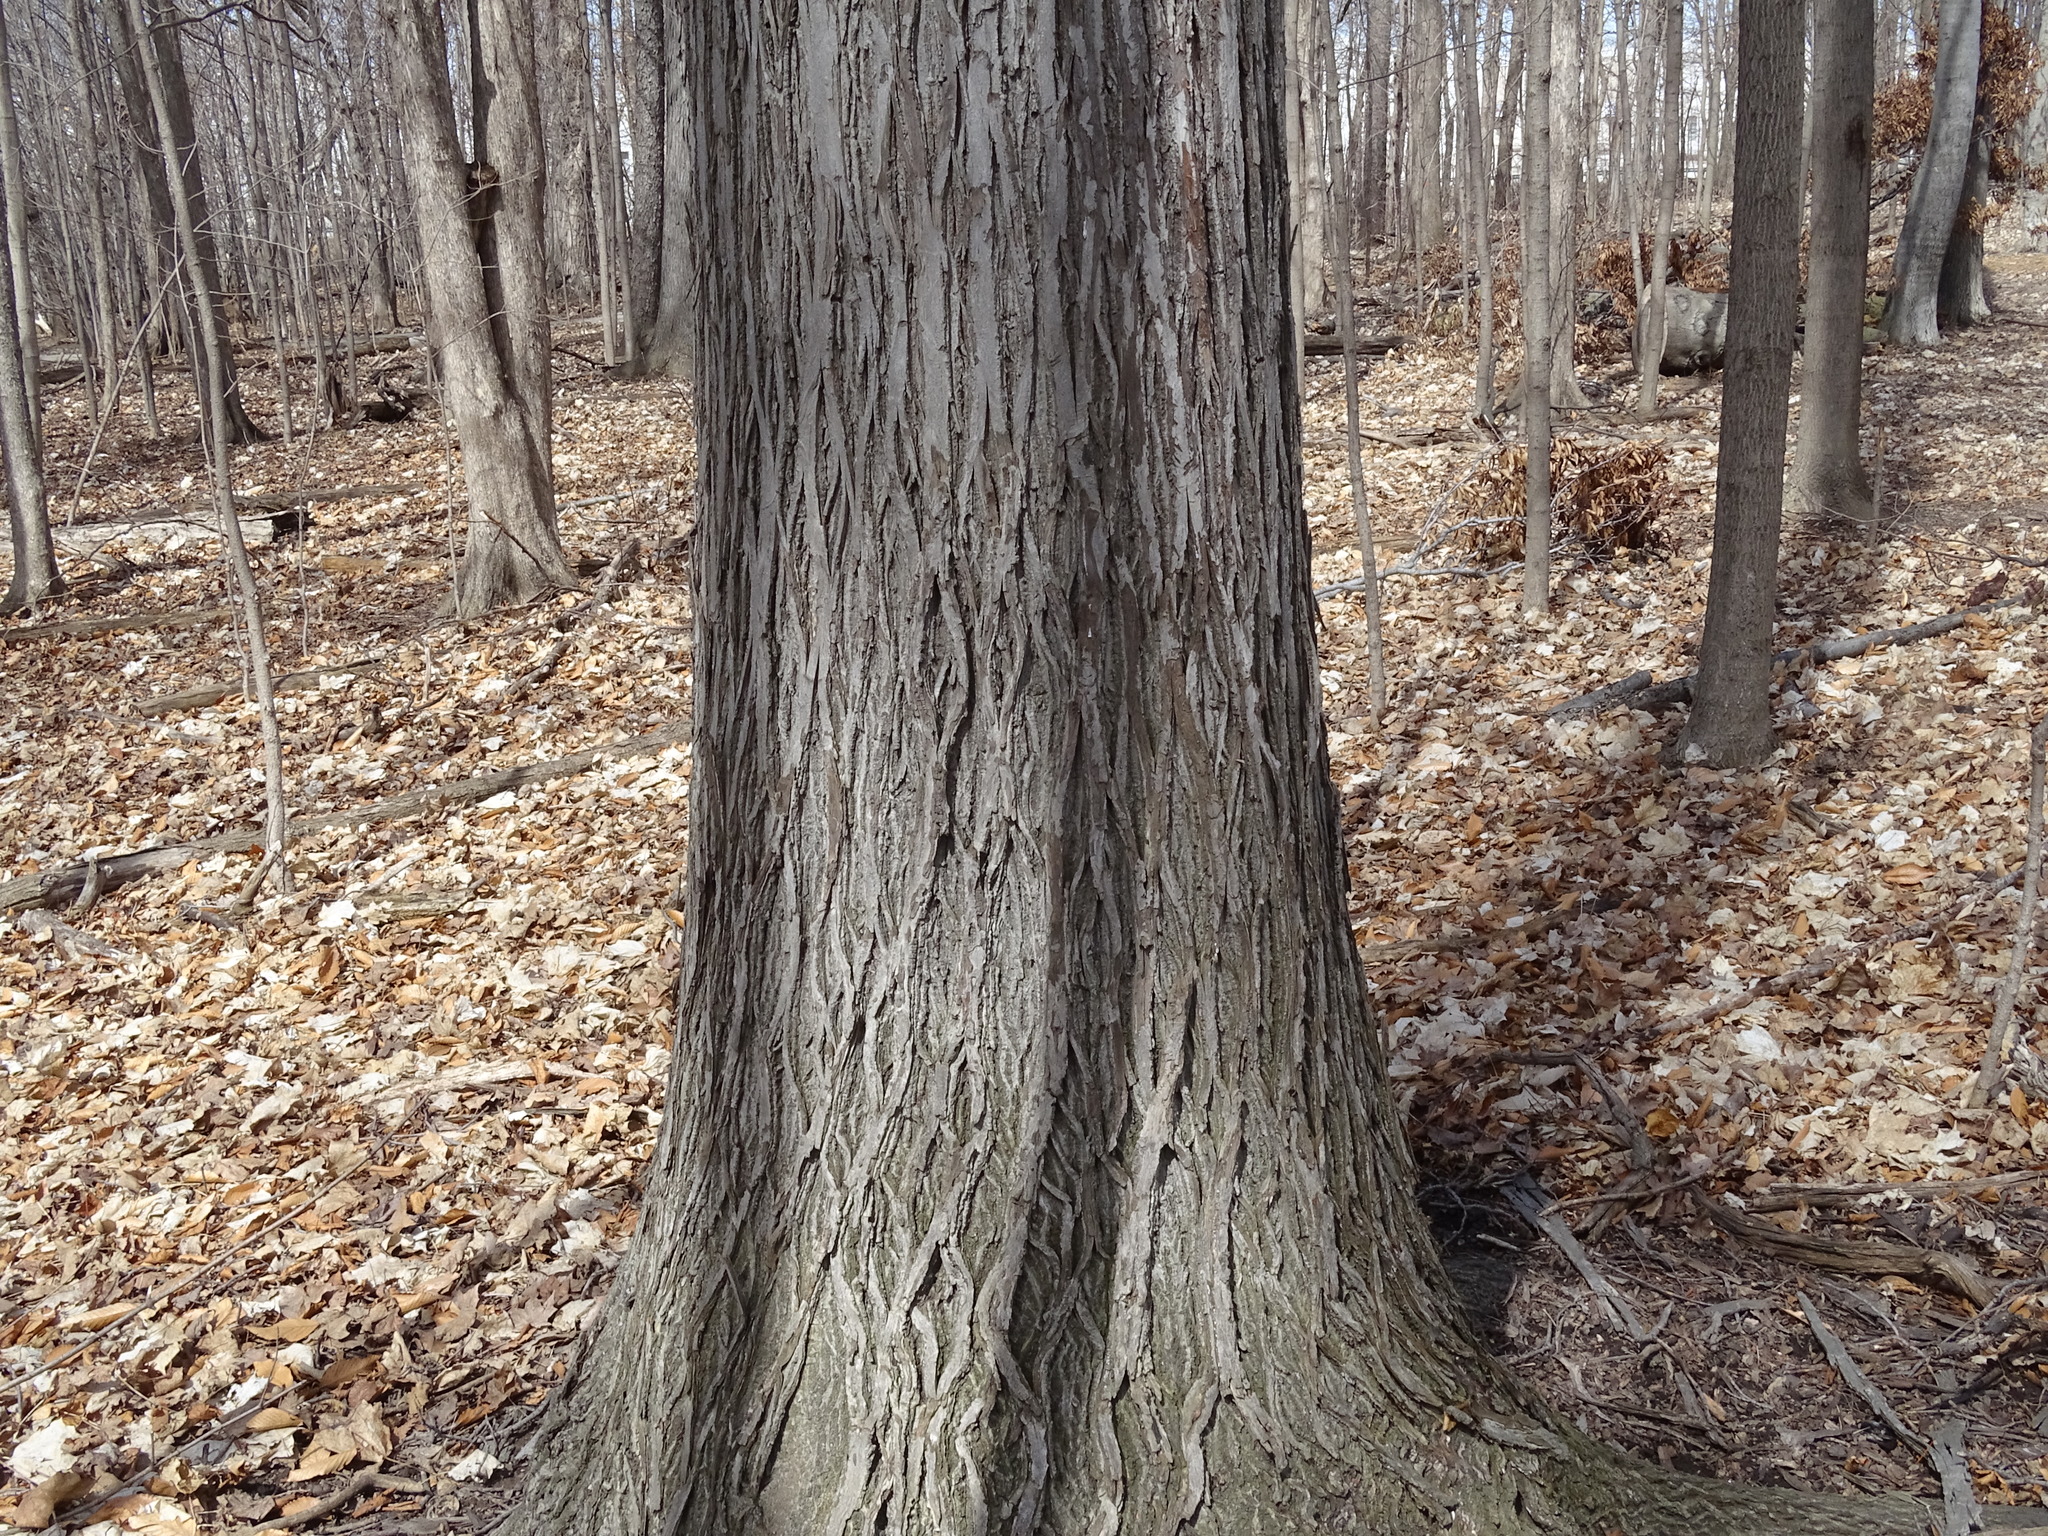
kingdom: Plantae
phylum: Tracheophyta
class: Magnoliopsida
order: Fagales
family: Juglandaceae
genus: Carya
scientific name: Carya ovata
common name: Shagbark hickory
